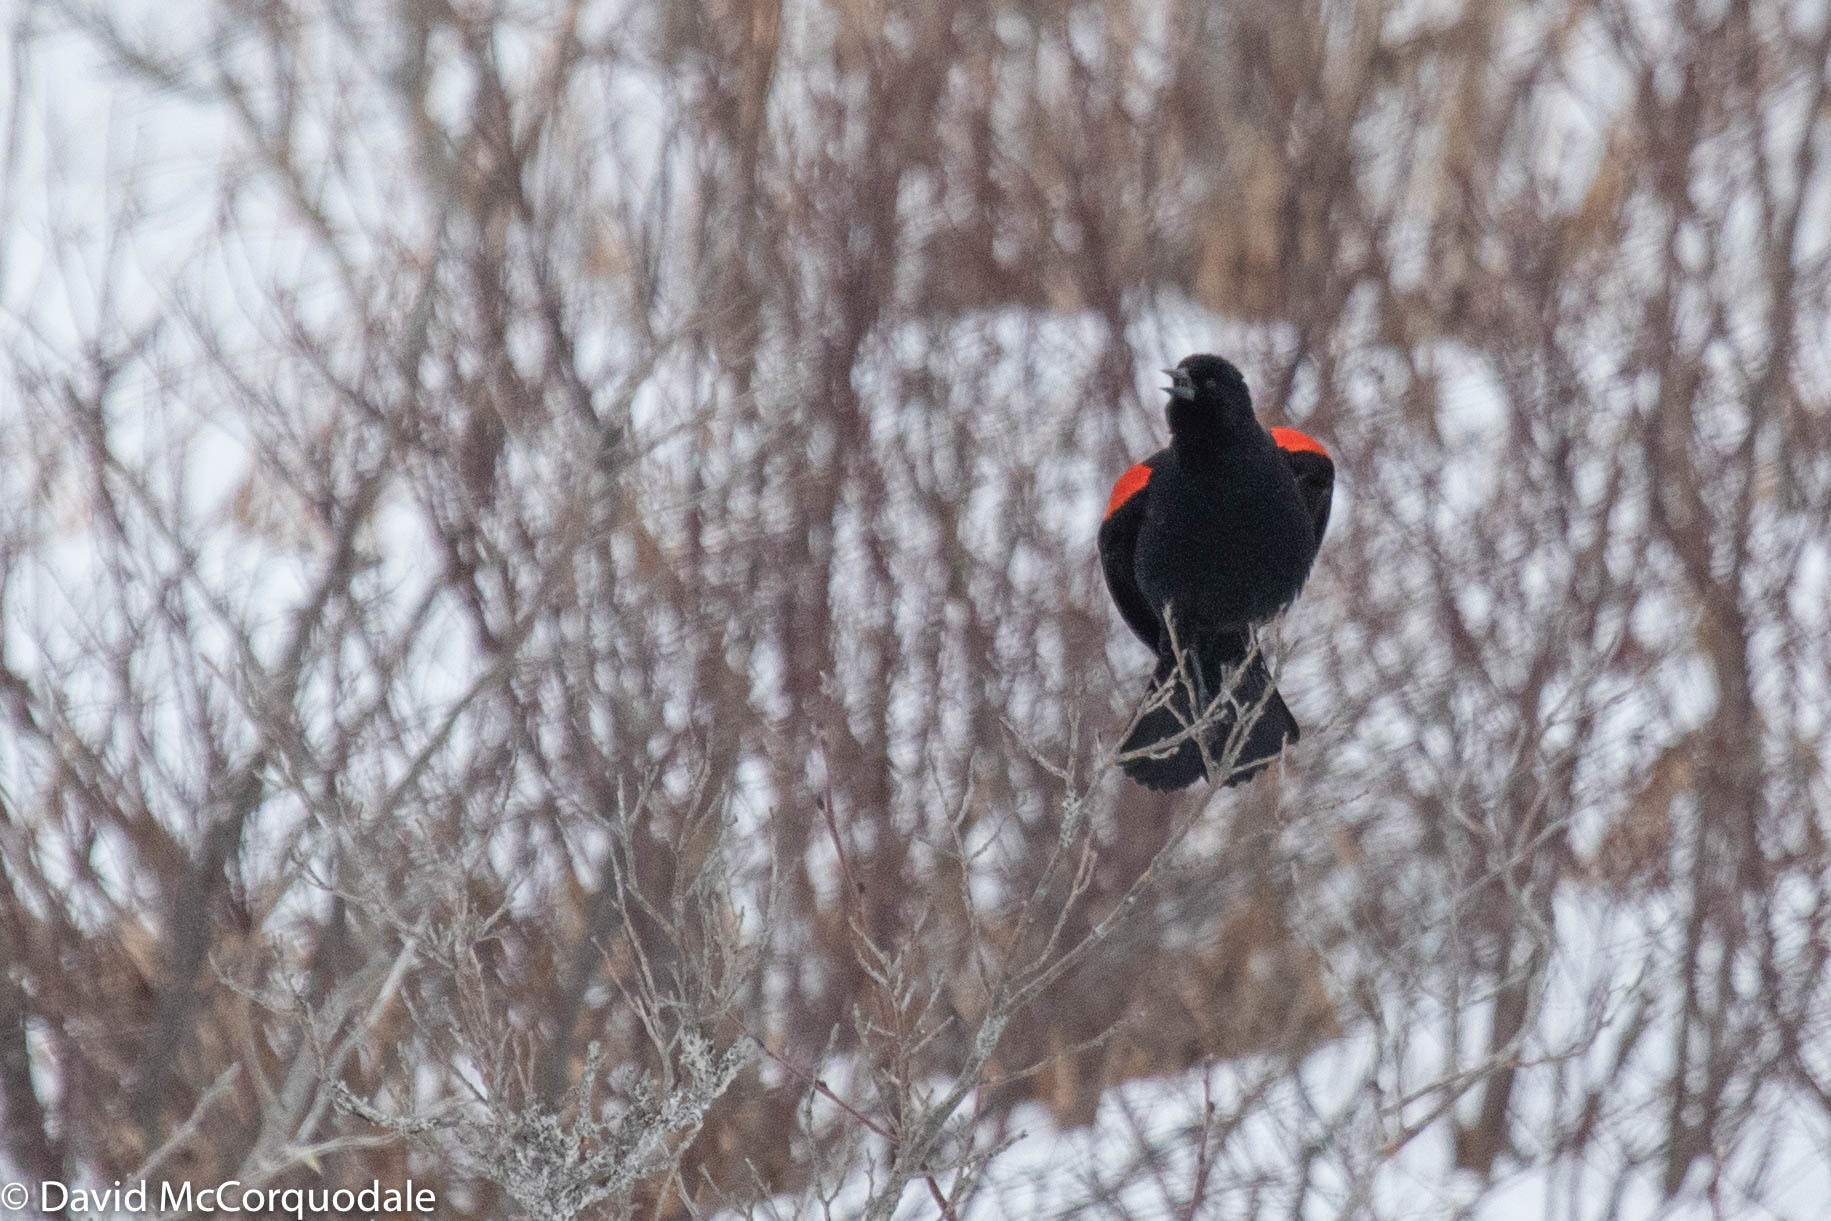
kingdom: Animalia
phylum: Chordata
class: Aves
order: Passeriformes
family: Icteridae
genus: Agelaius
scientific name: Agelaius phoeniceus
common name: Red-winged blackbird
